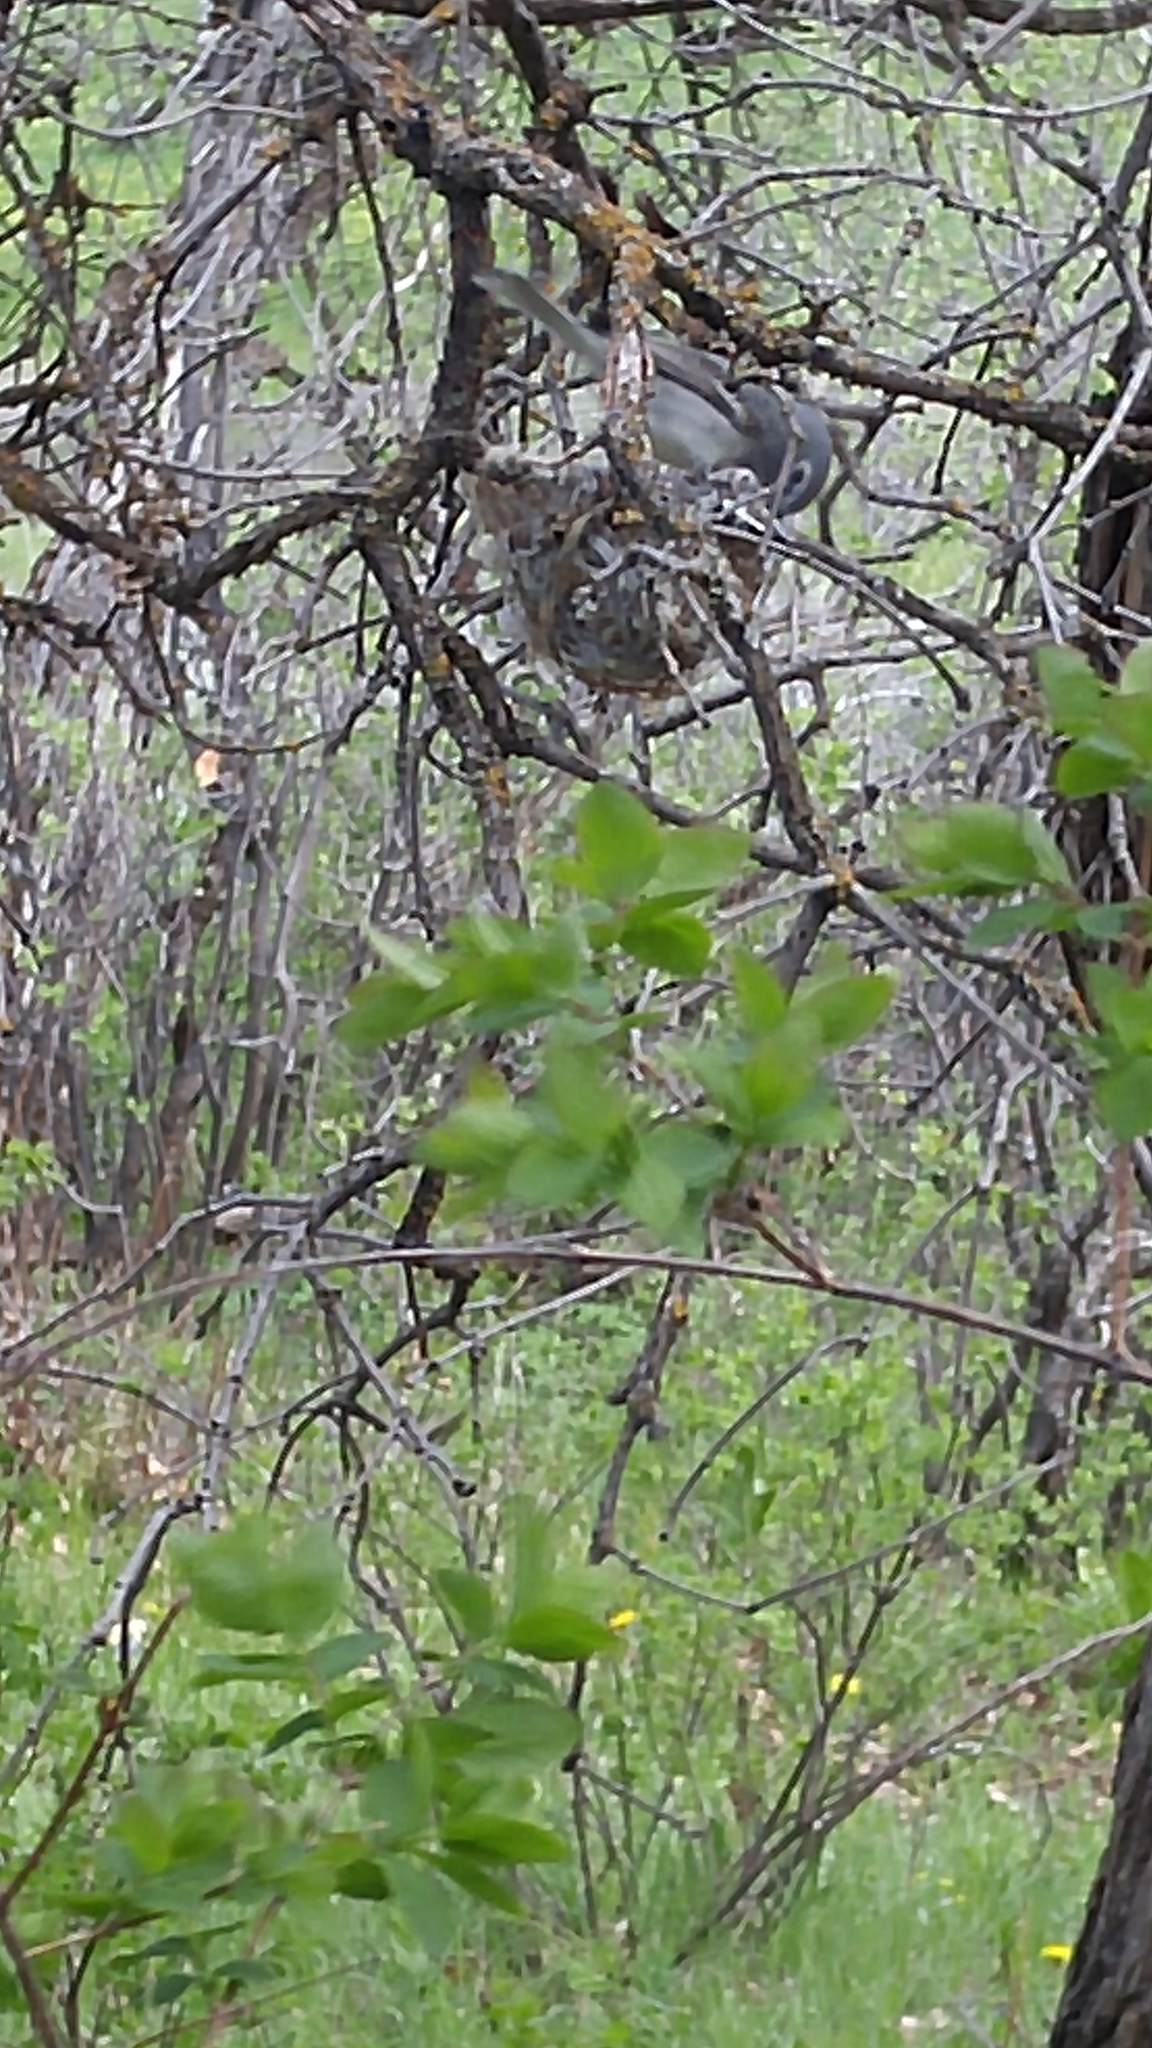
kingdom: Animalia
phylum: Chordata
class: Aves
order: Passeriformes
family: Vireonidae
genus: Vireo
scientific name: Vireo plumbeus
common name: Plumbeous vireo
